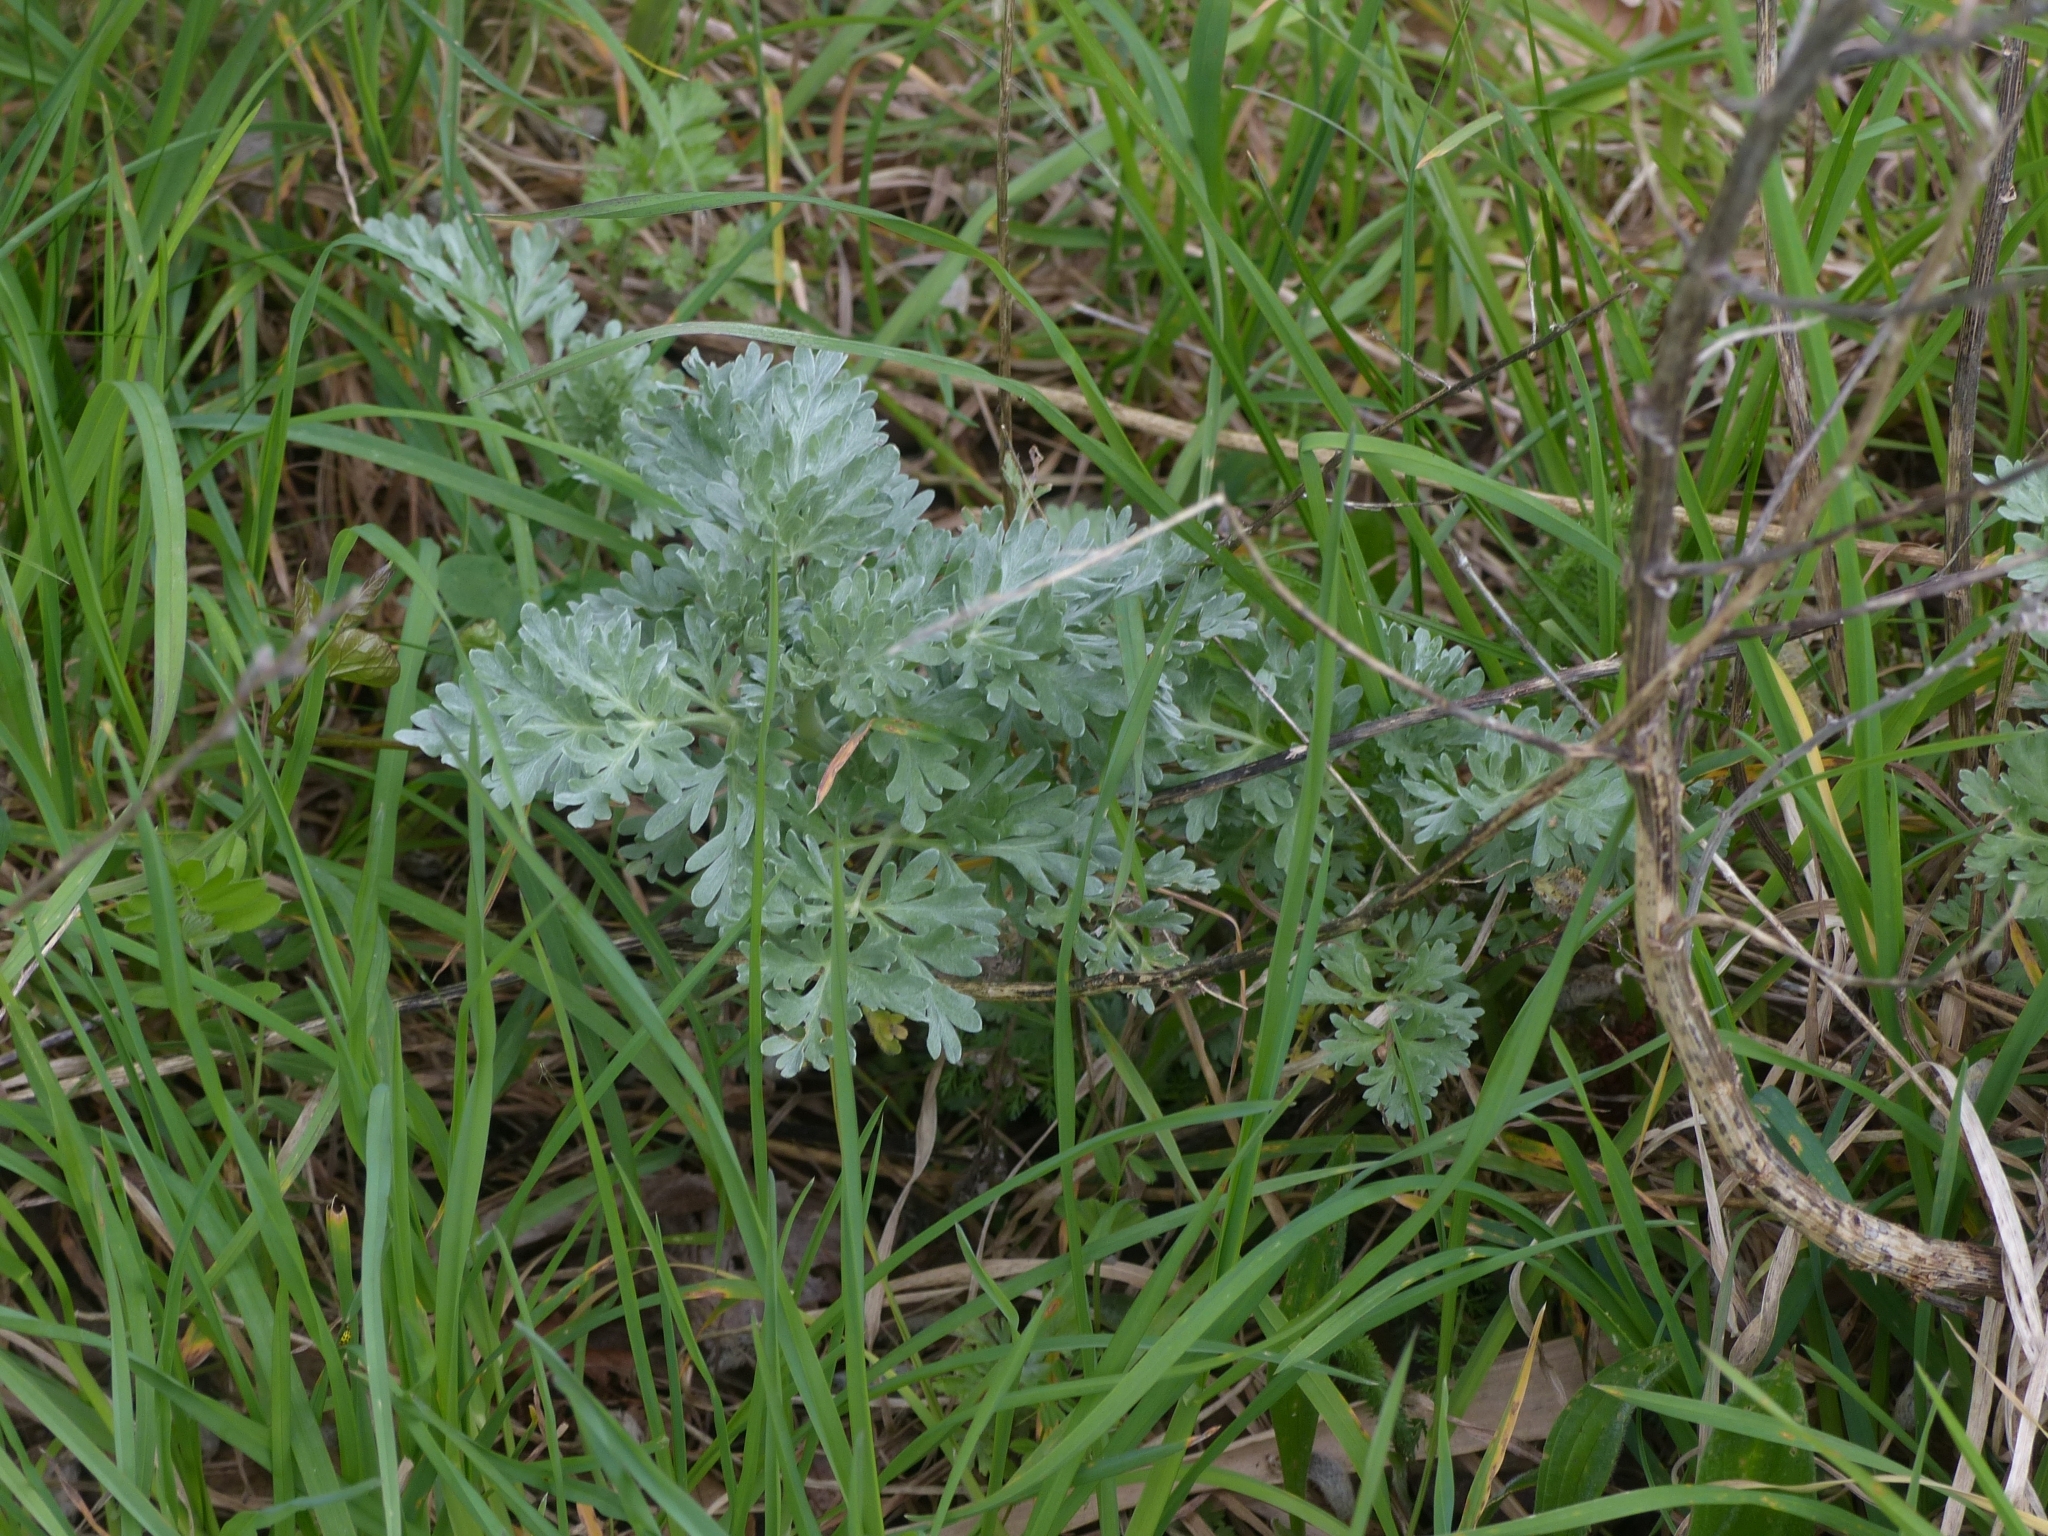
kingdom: Plantae
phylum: Tracheophyta
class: Magnoliopsida
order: Asterales
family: Asteraceae
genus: Artemisia
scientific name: Artemisia absinthium
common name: Wormwood
